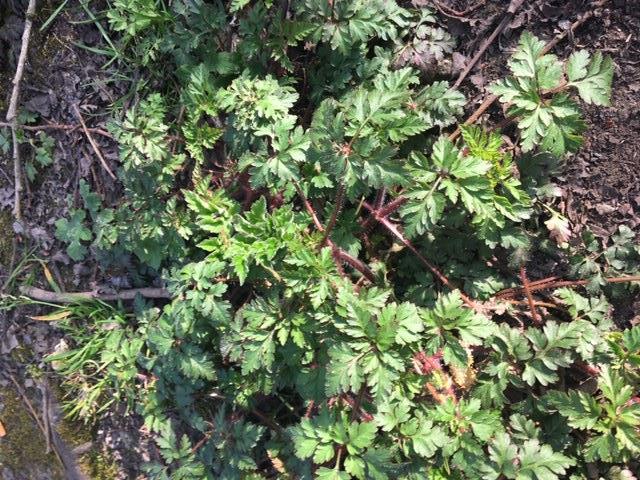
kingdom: Plantae
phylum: Tracheophyta
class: Magnoliopsida
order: Geraniales
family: Geraniaceae
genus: Geranium
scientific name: Geranium robertianum
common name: Herb-robert
